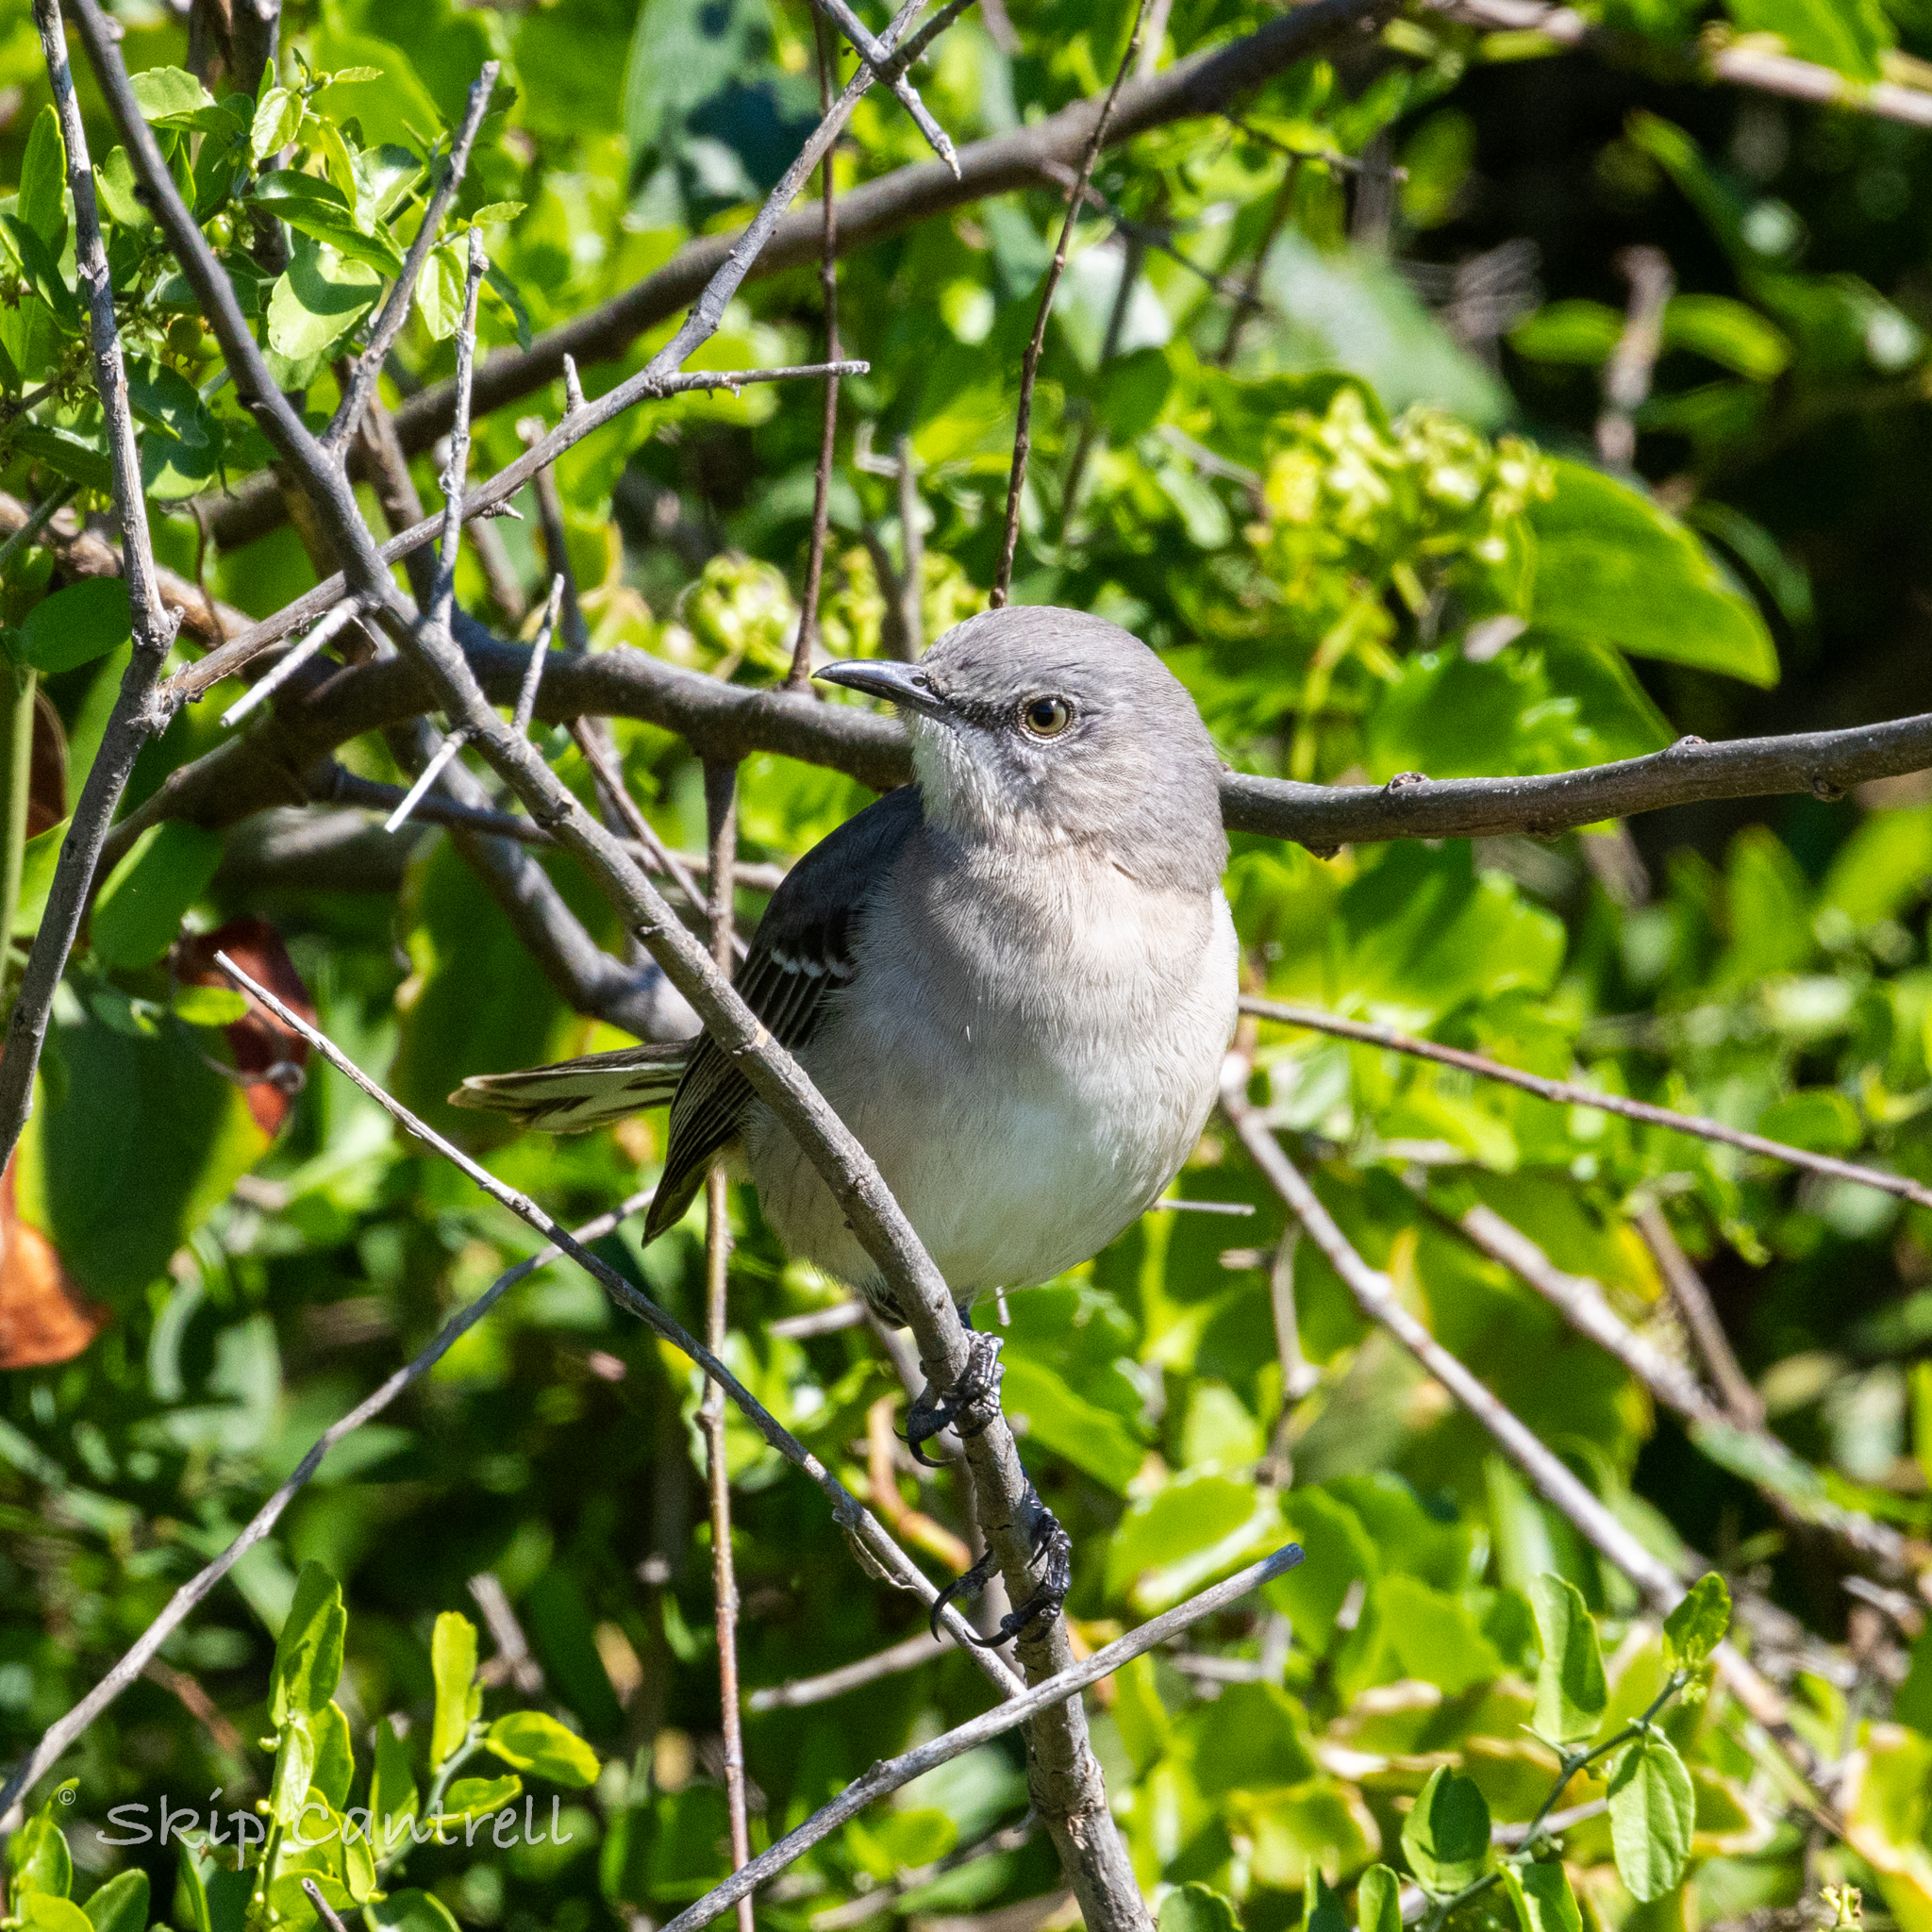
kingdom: Animalia
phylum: Chordata
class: Aves
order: Passeriformes
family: Mimidae
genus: Mimus
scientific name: Mimus polyglottos
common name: Northern mockingbird
